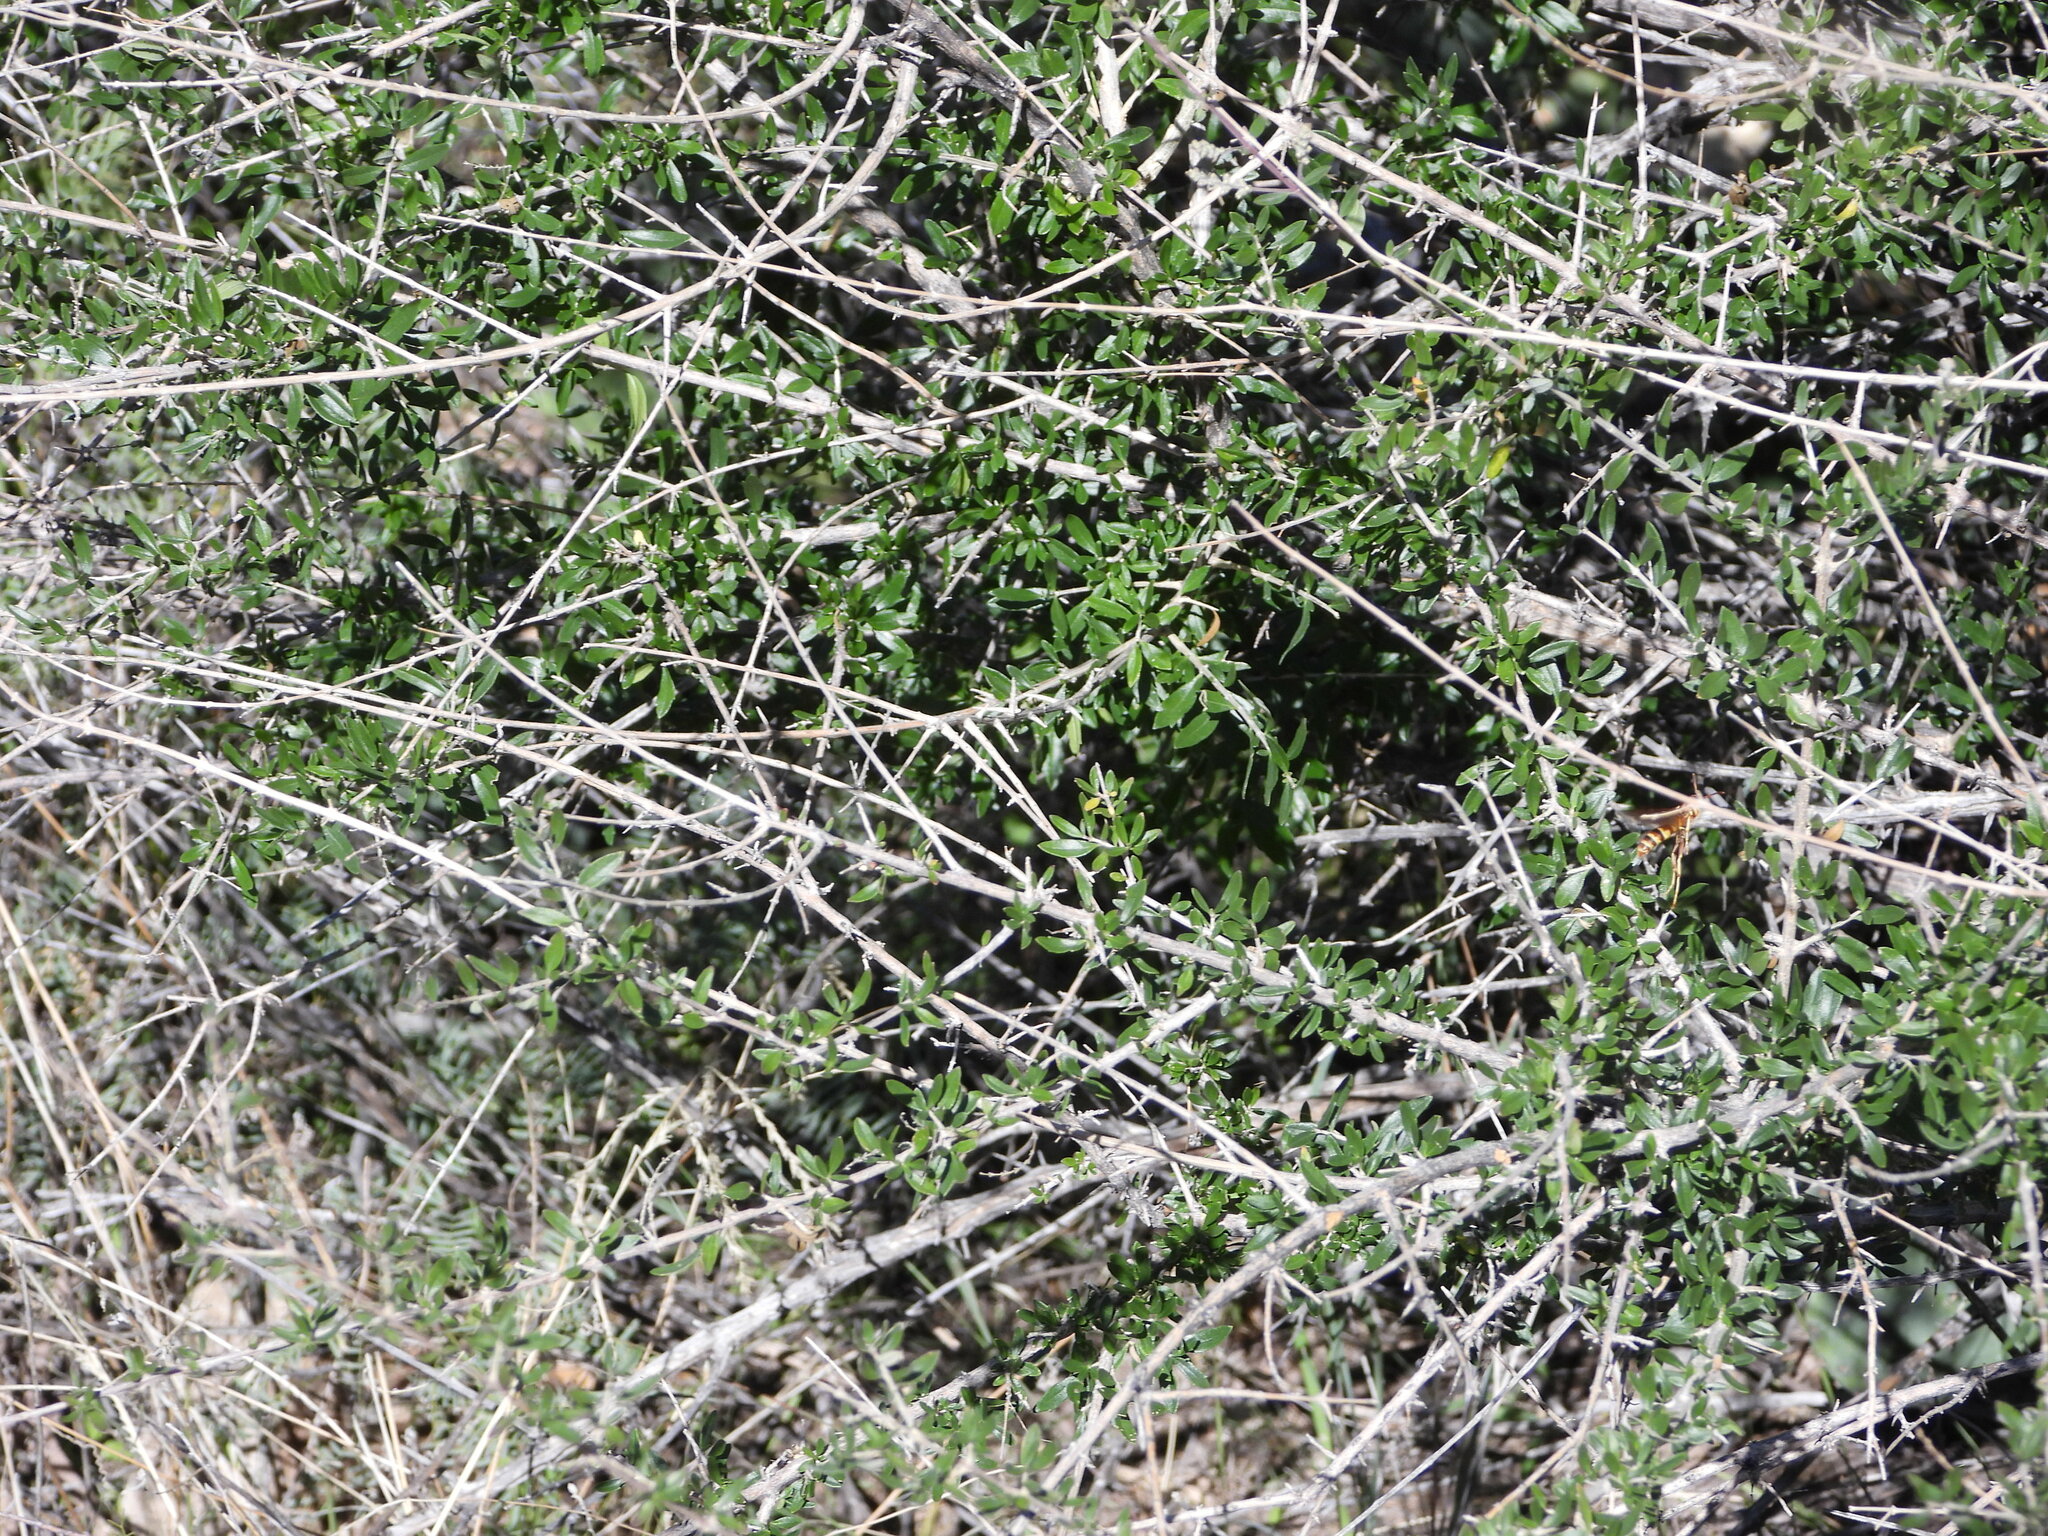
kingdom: Plantae
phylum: Tracheophyta
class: Magnoliopsida
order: Lamiales
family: Verbenaceae
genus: Aloysia
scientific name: Aloysia gratissima
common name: Common bee-brush
